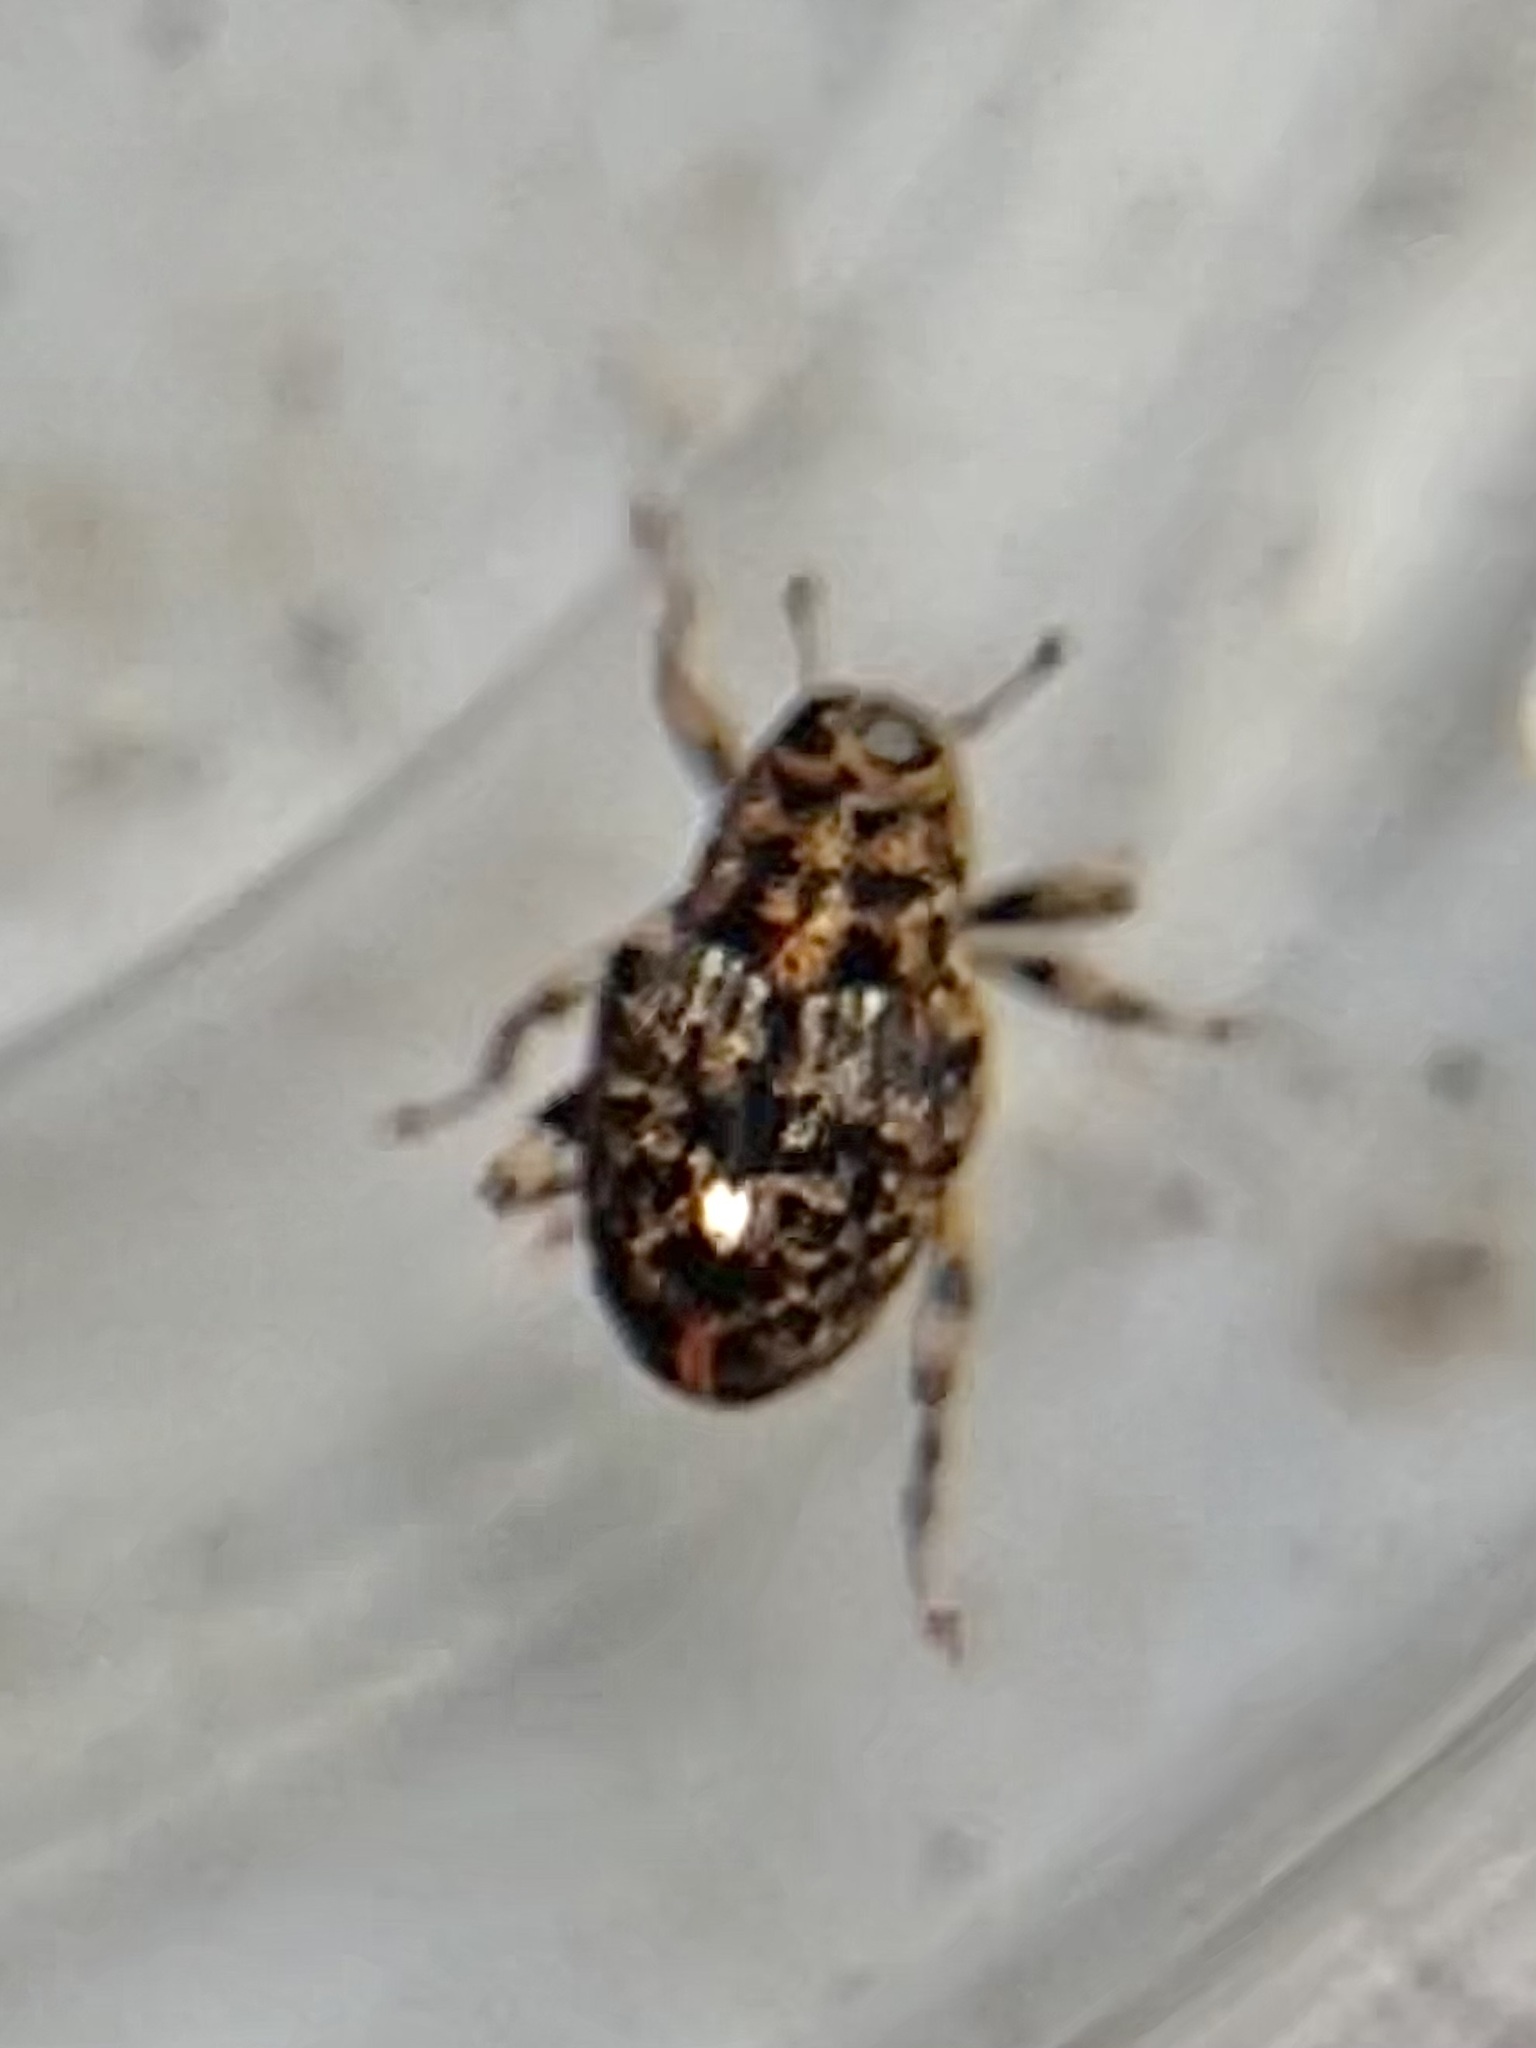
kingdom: Animalia
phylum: Arthropoda
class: Insecta
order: Coleoptera
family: Curculionidae
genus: Lechriops
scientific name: Lechriops oculatus
